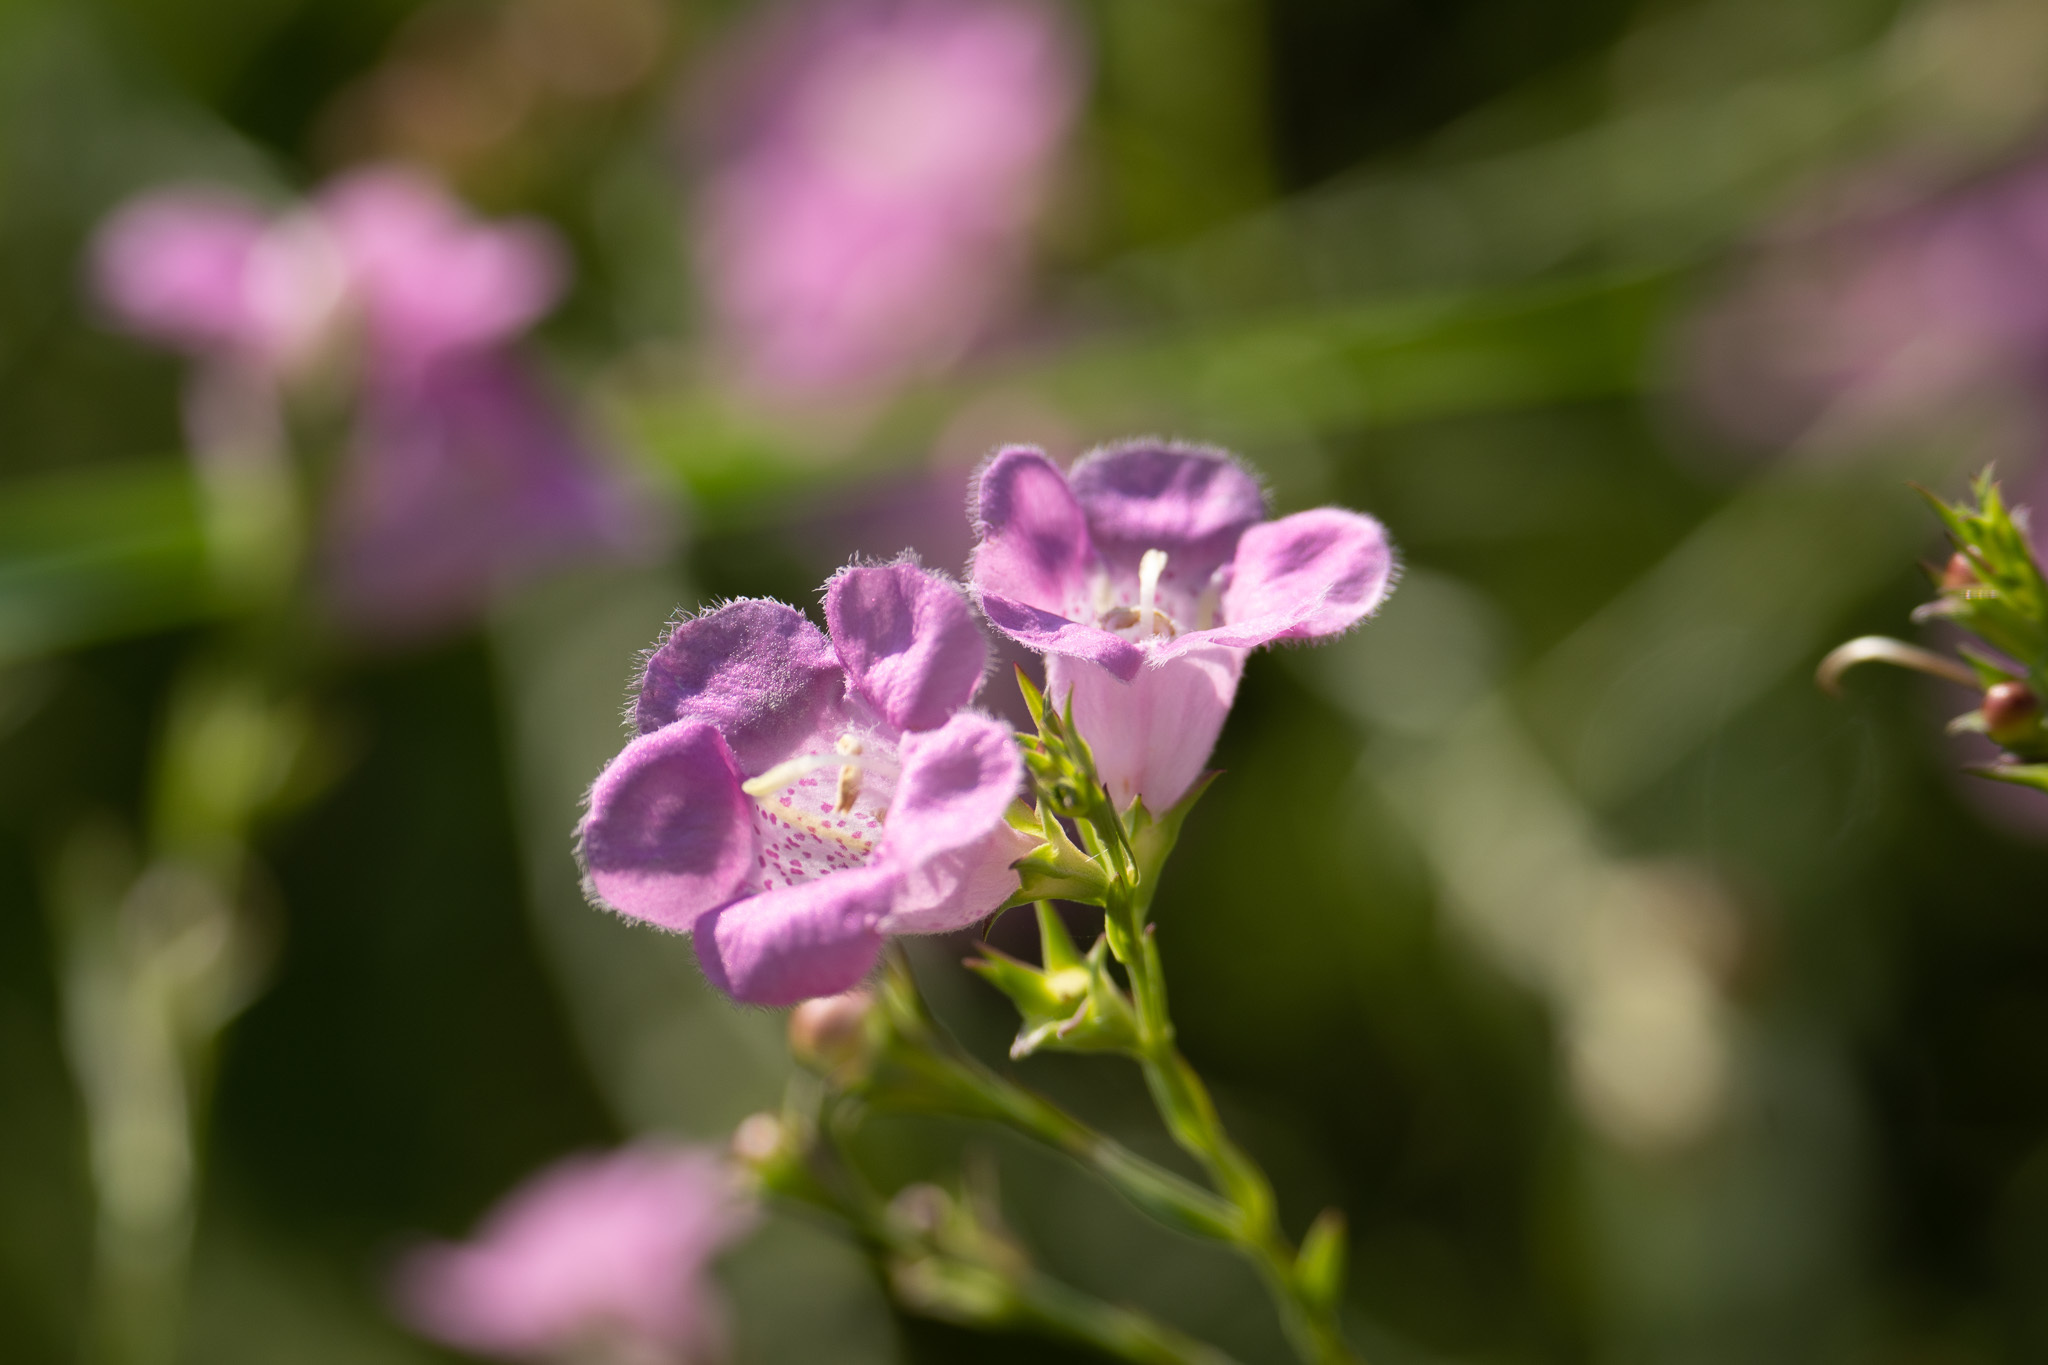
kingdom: Plantae
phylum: Tracheophyta
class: Magnoliopsida
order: Lamiales
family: Orobanchaceae
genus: Agalinis
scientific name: Agalinis heterophylla
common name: Prairie agalinis
